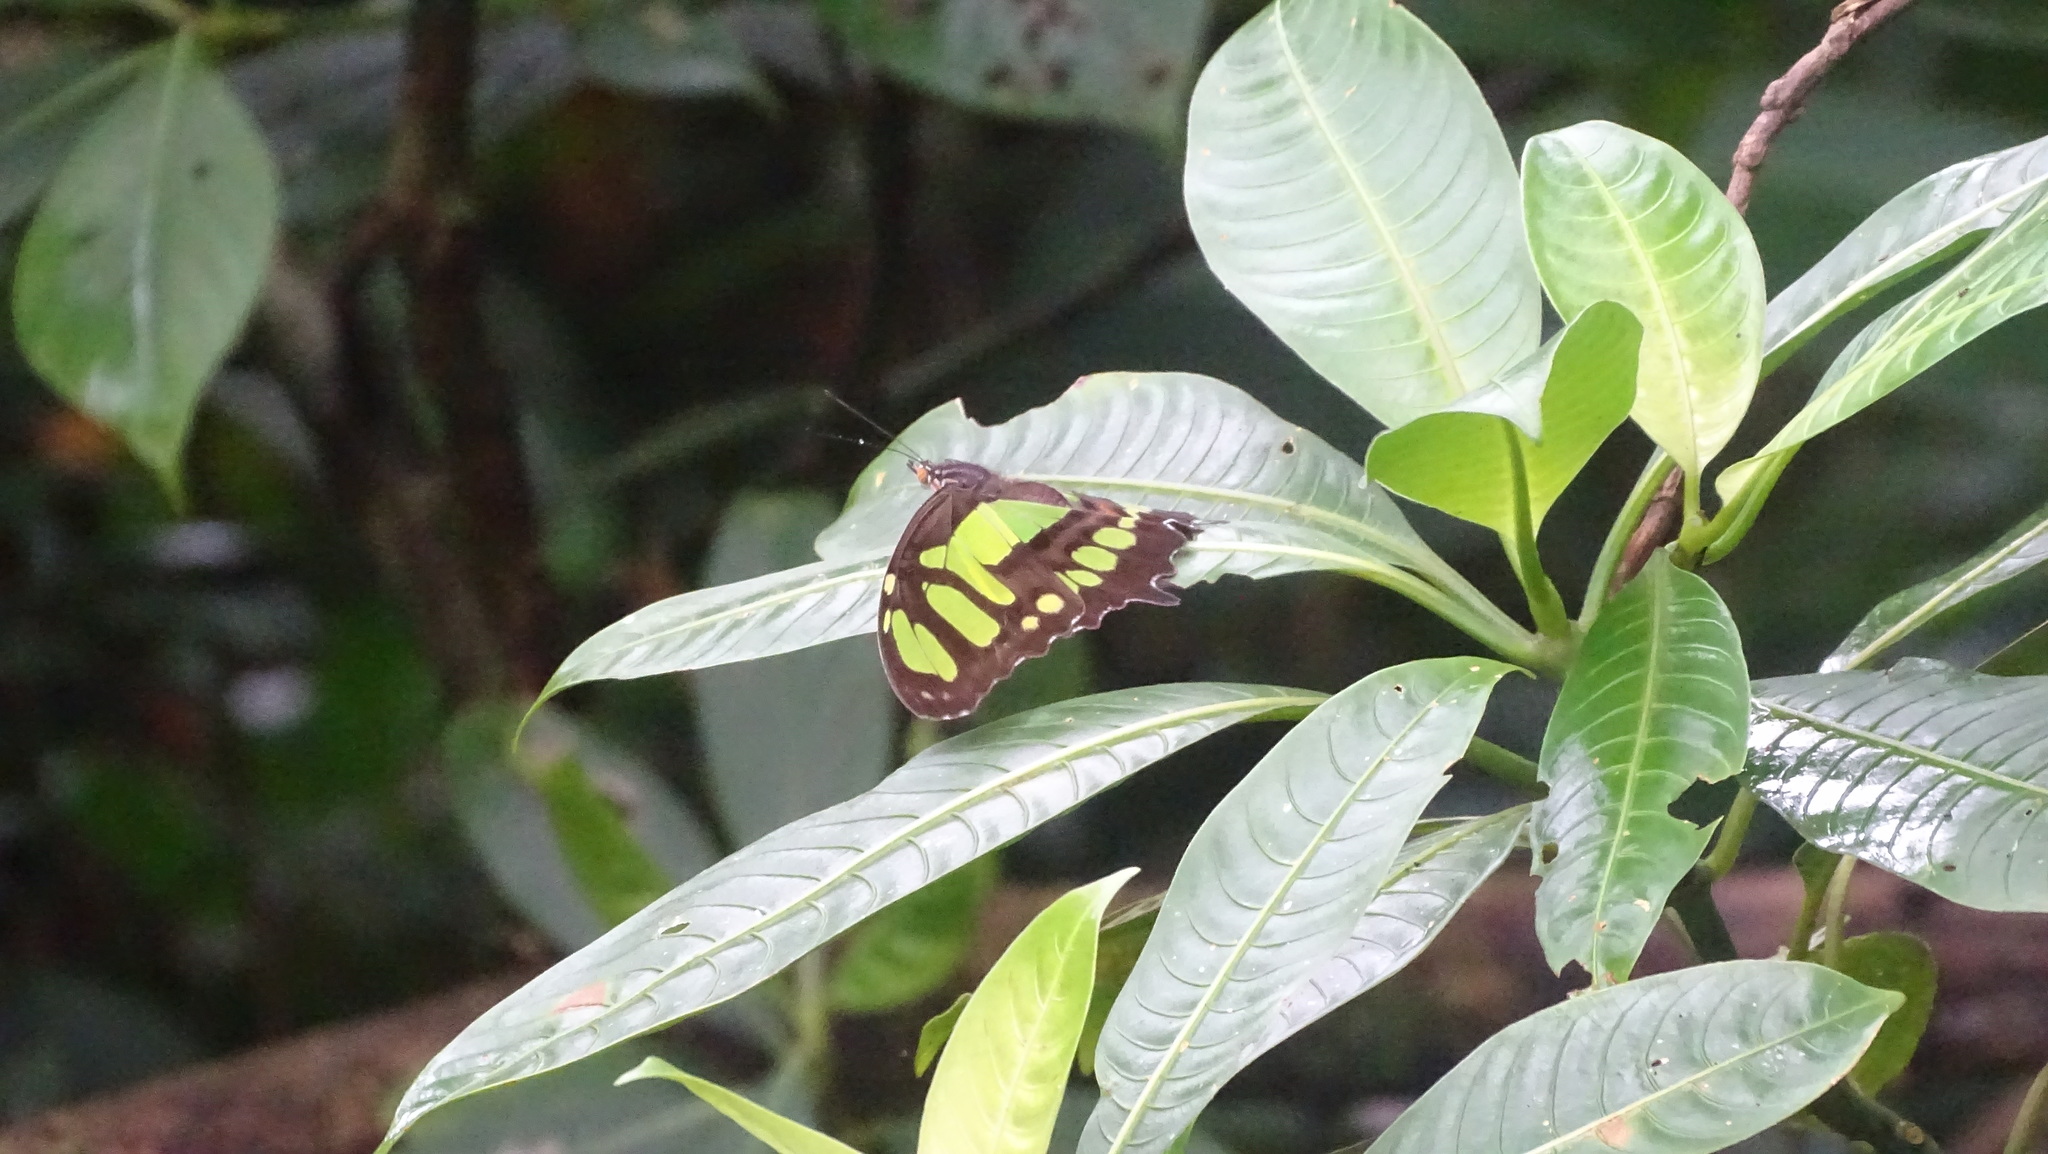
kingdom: Animalia
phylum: Arthropoda
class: Insecta
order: Lepidoptera
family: Nymphalidae
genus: Siproeta
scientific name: Siproeta stelenes
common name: Malachite
